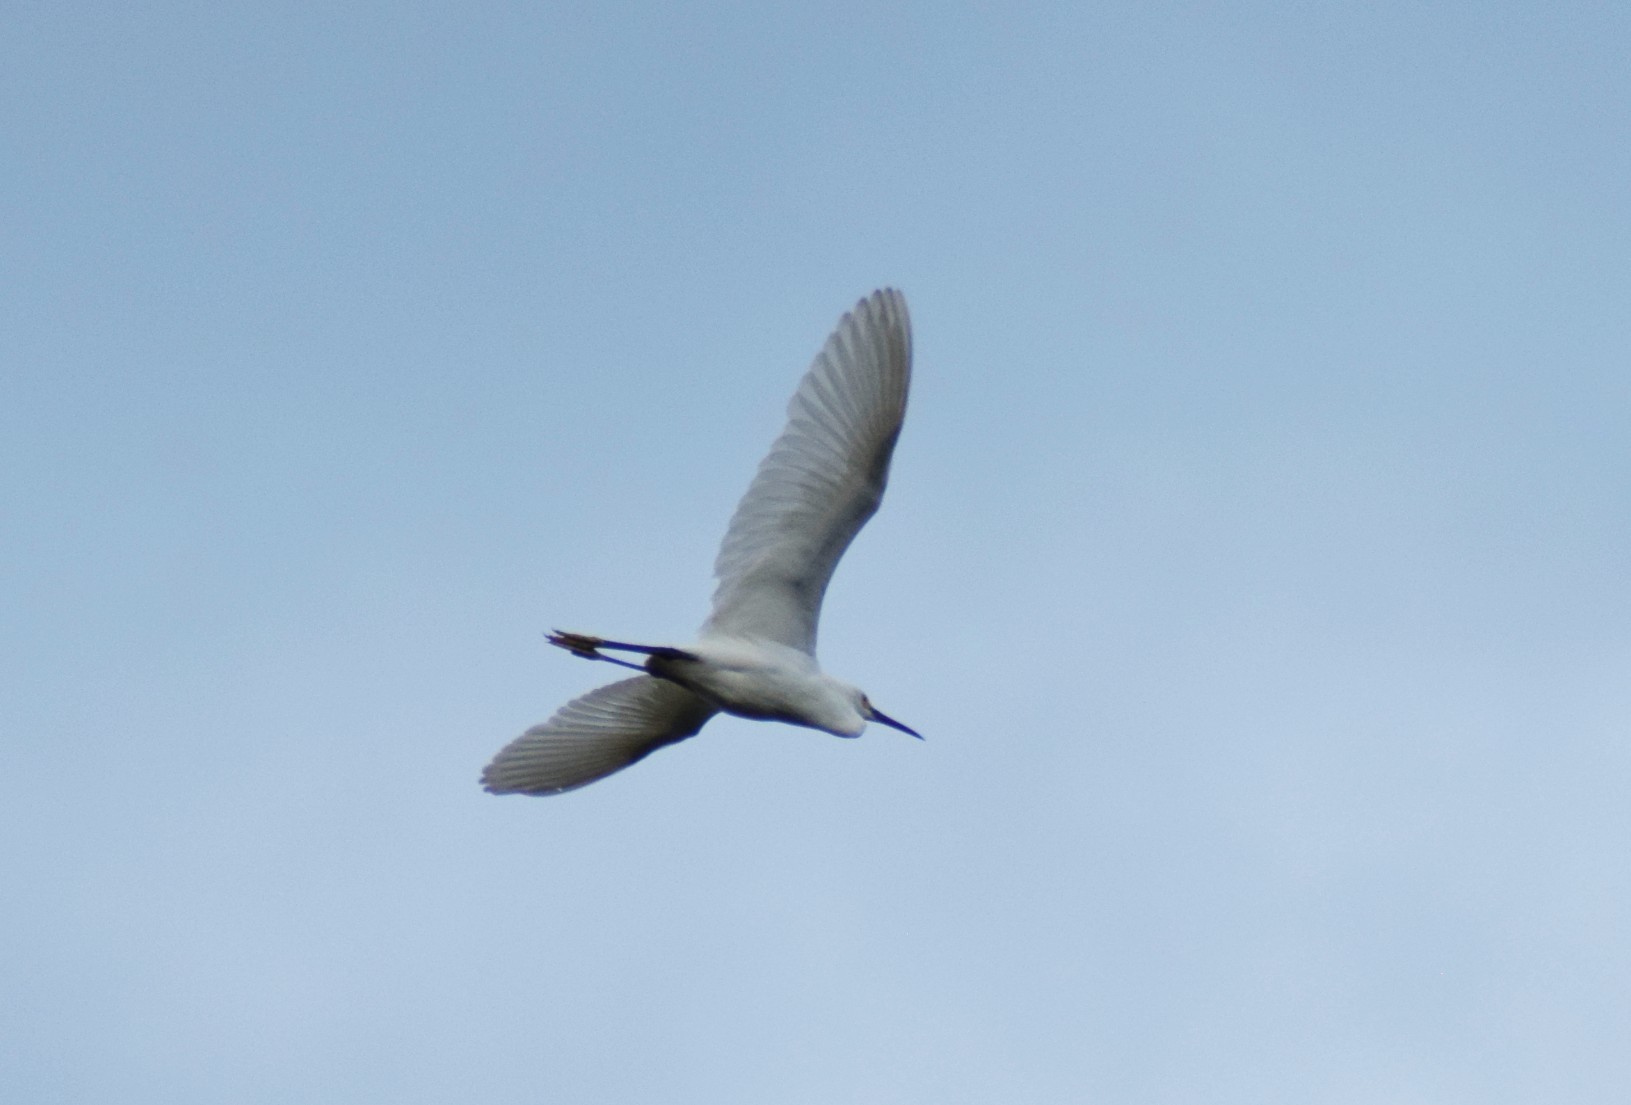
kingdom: Animalia
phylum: Chordata
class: Aves
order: Pelecaniformes
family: Ardeidae
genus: Egretta
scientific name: Egretta thula
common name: Snowy egret
